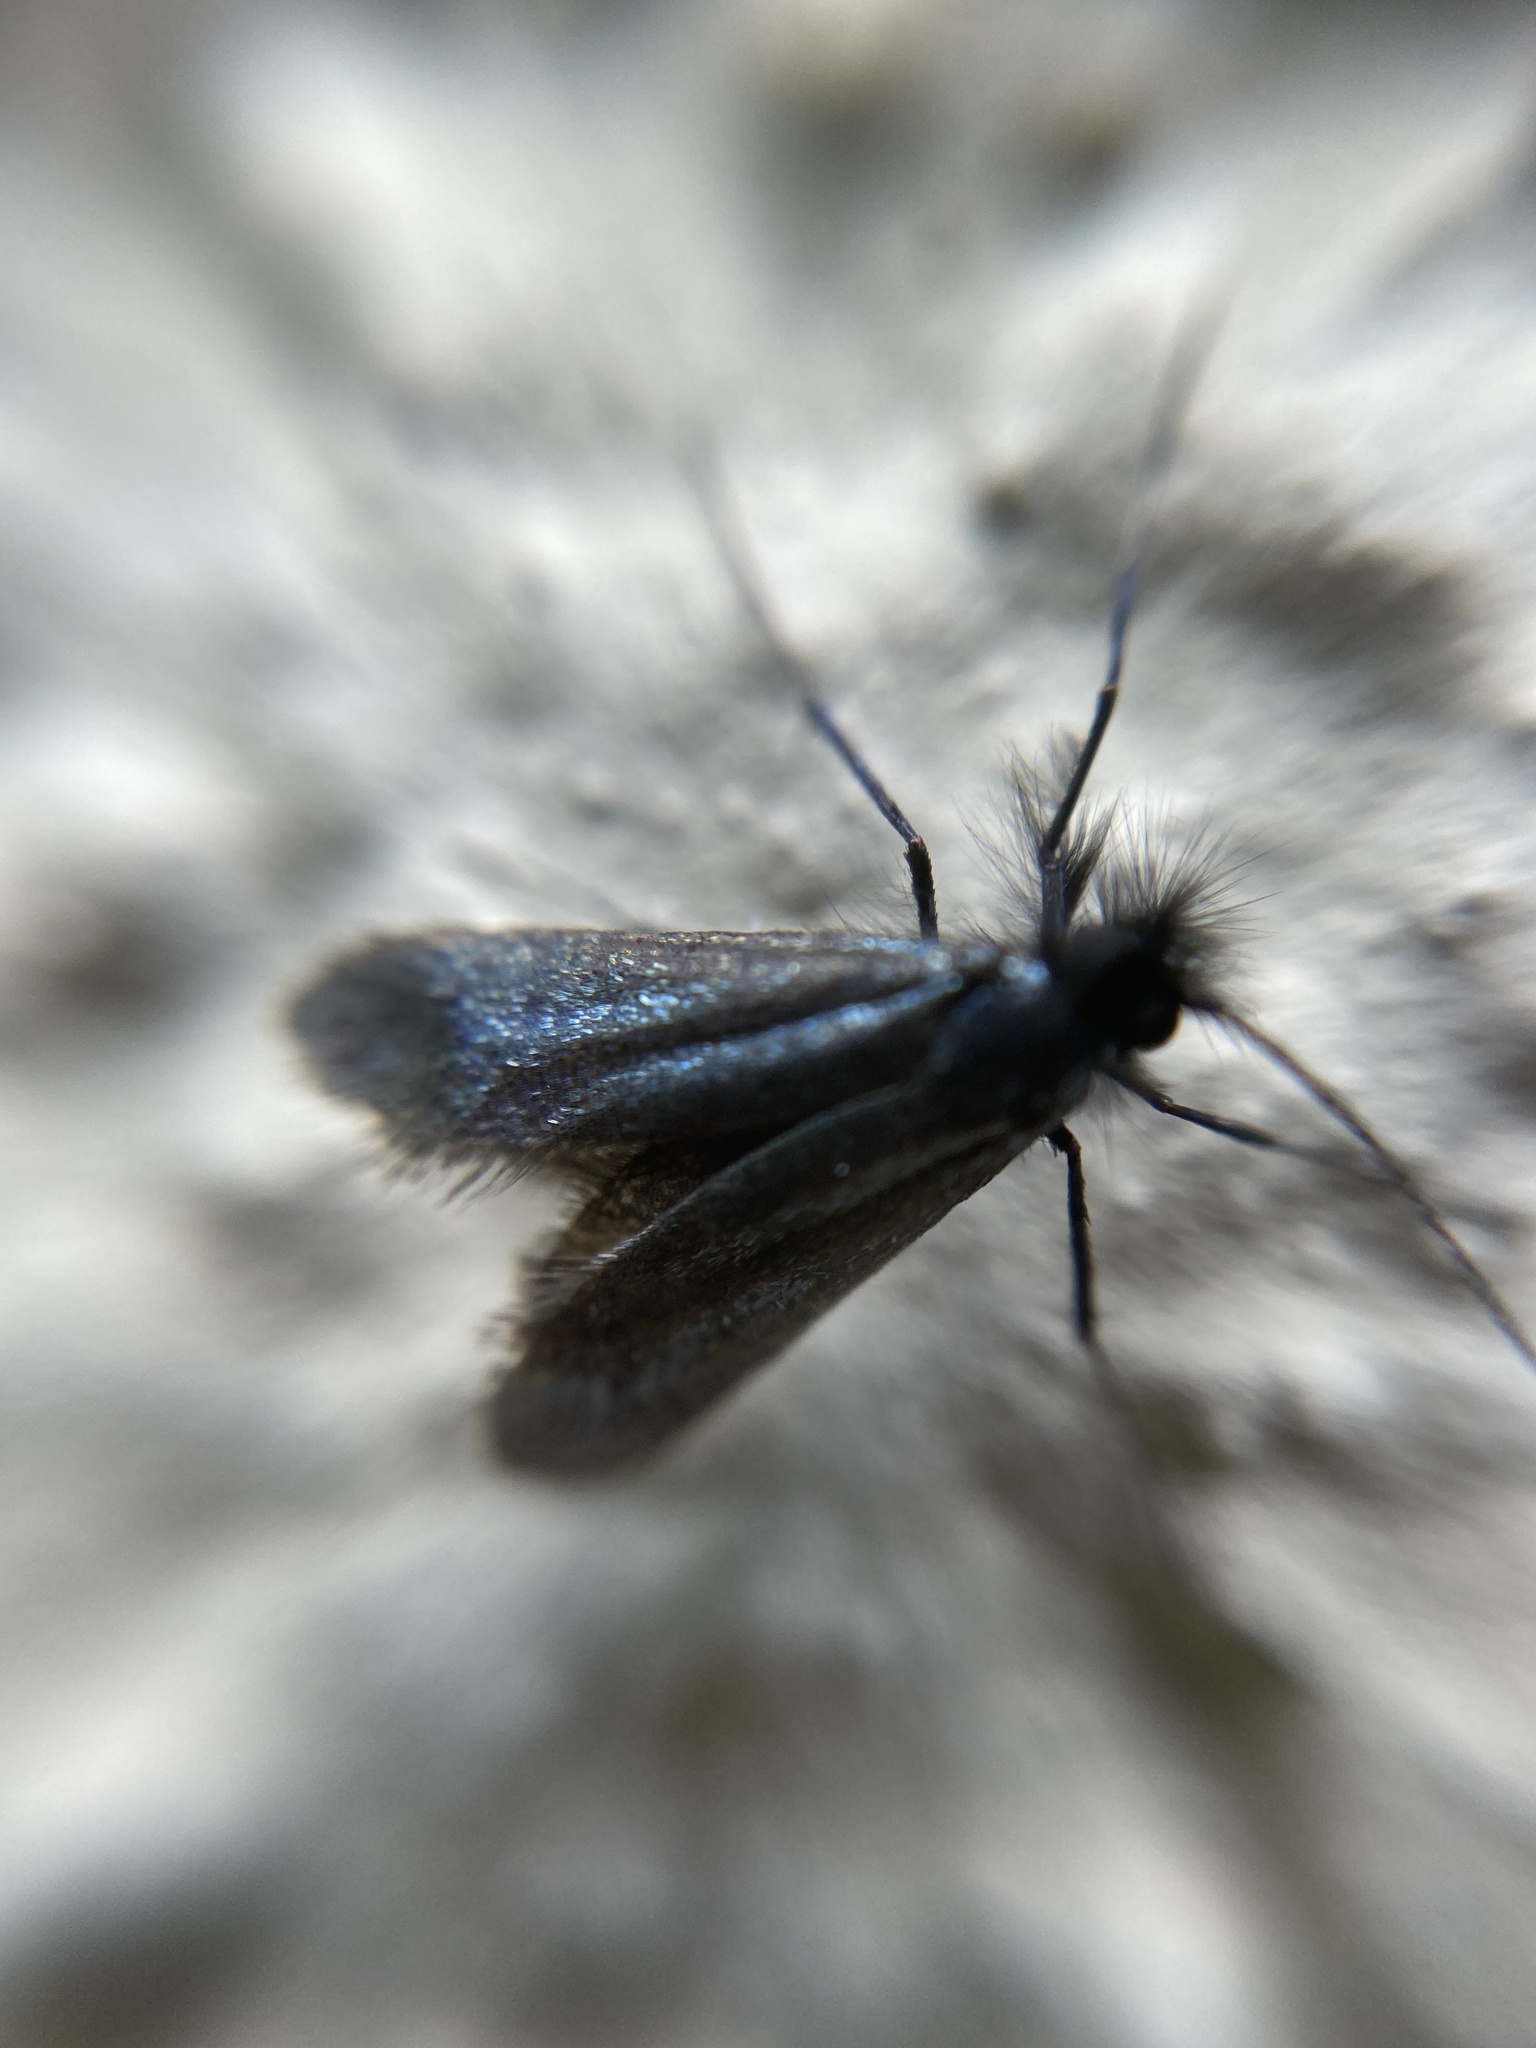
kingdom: Animalia
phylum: Arthropoda
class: Insecta
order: Lepidoptera
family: Adelidae
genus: Adela
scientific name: Adela viridella
